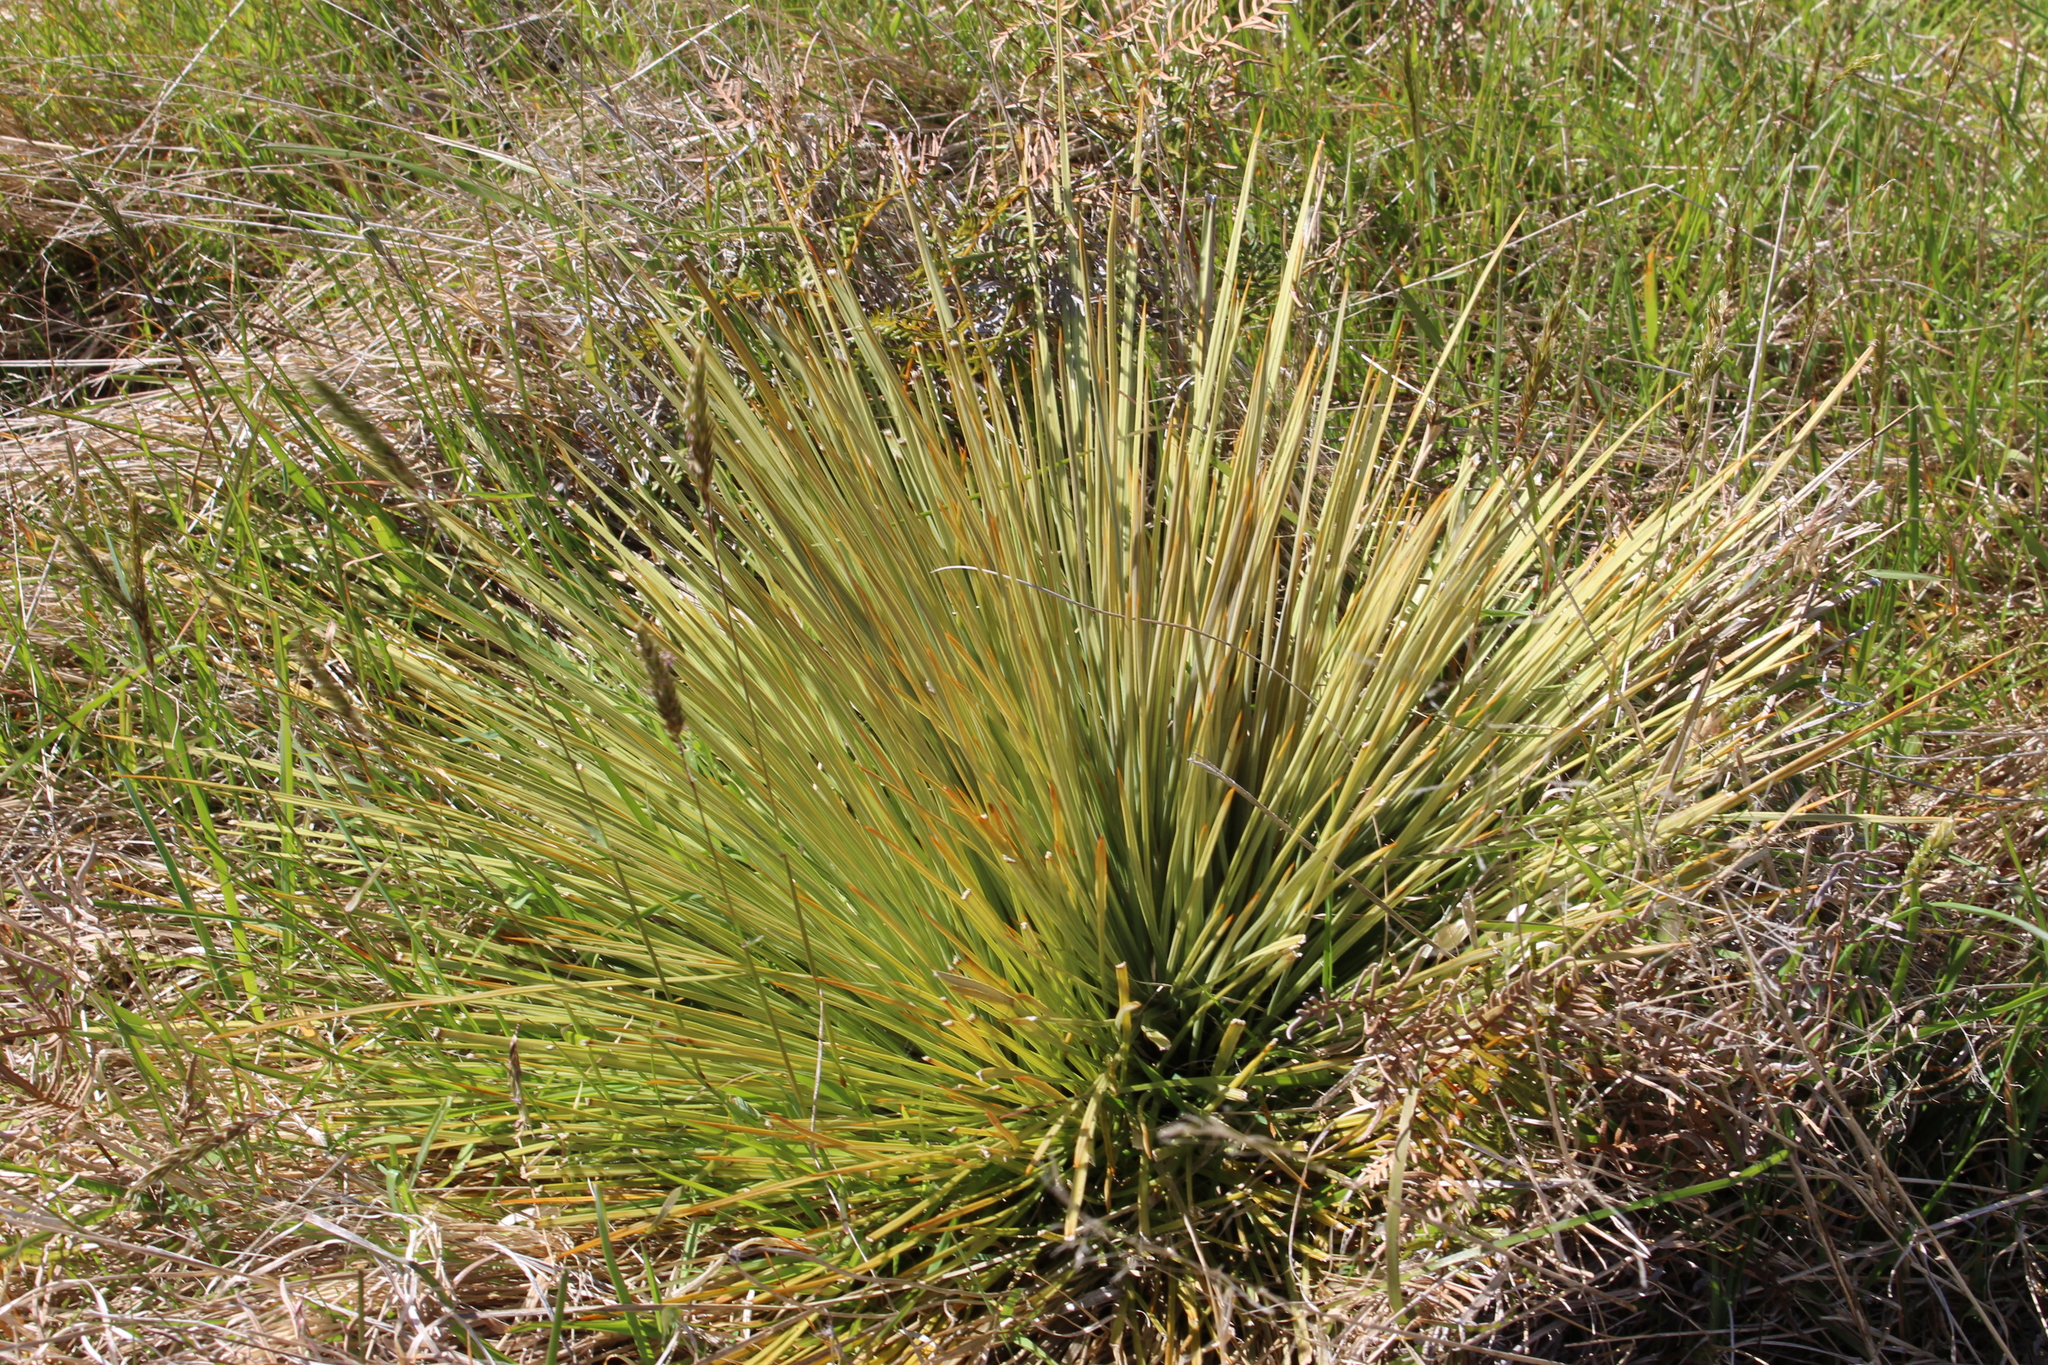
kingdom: Plantae
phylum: Tracheophyta
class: Magnoliopsida
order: Apiales
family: Apiaceae
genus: Aciphylla
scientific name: Aciphylla subflabellata
